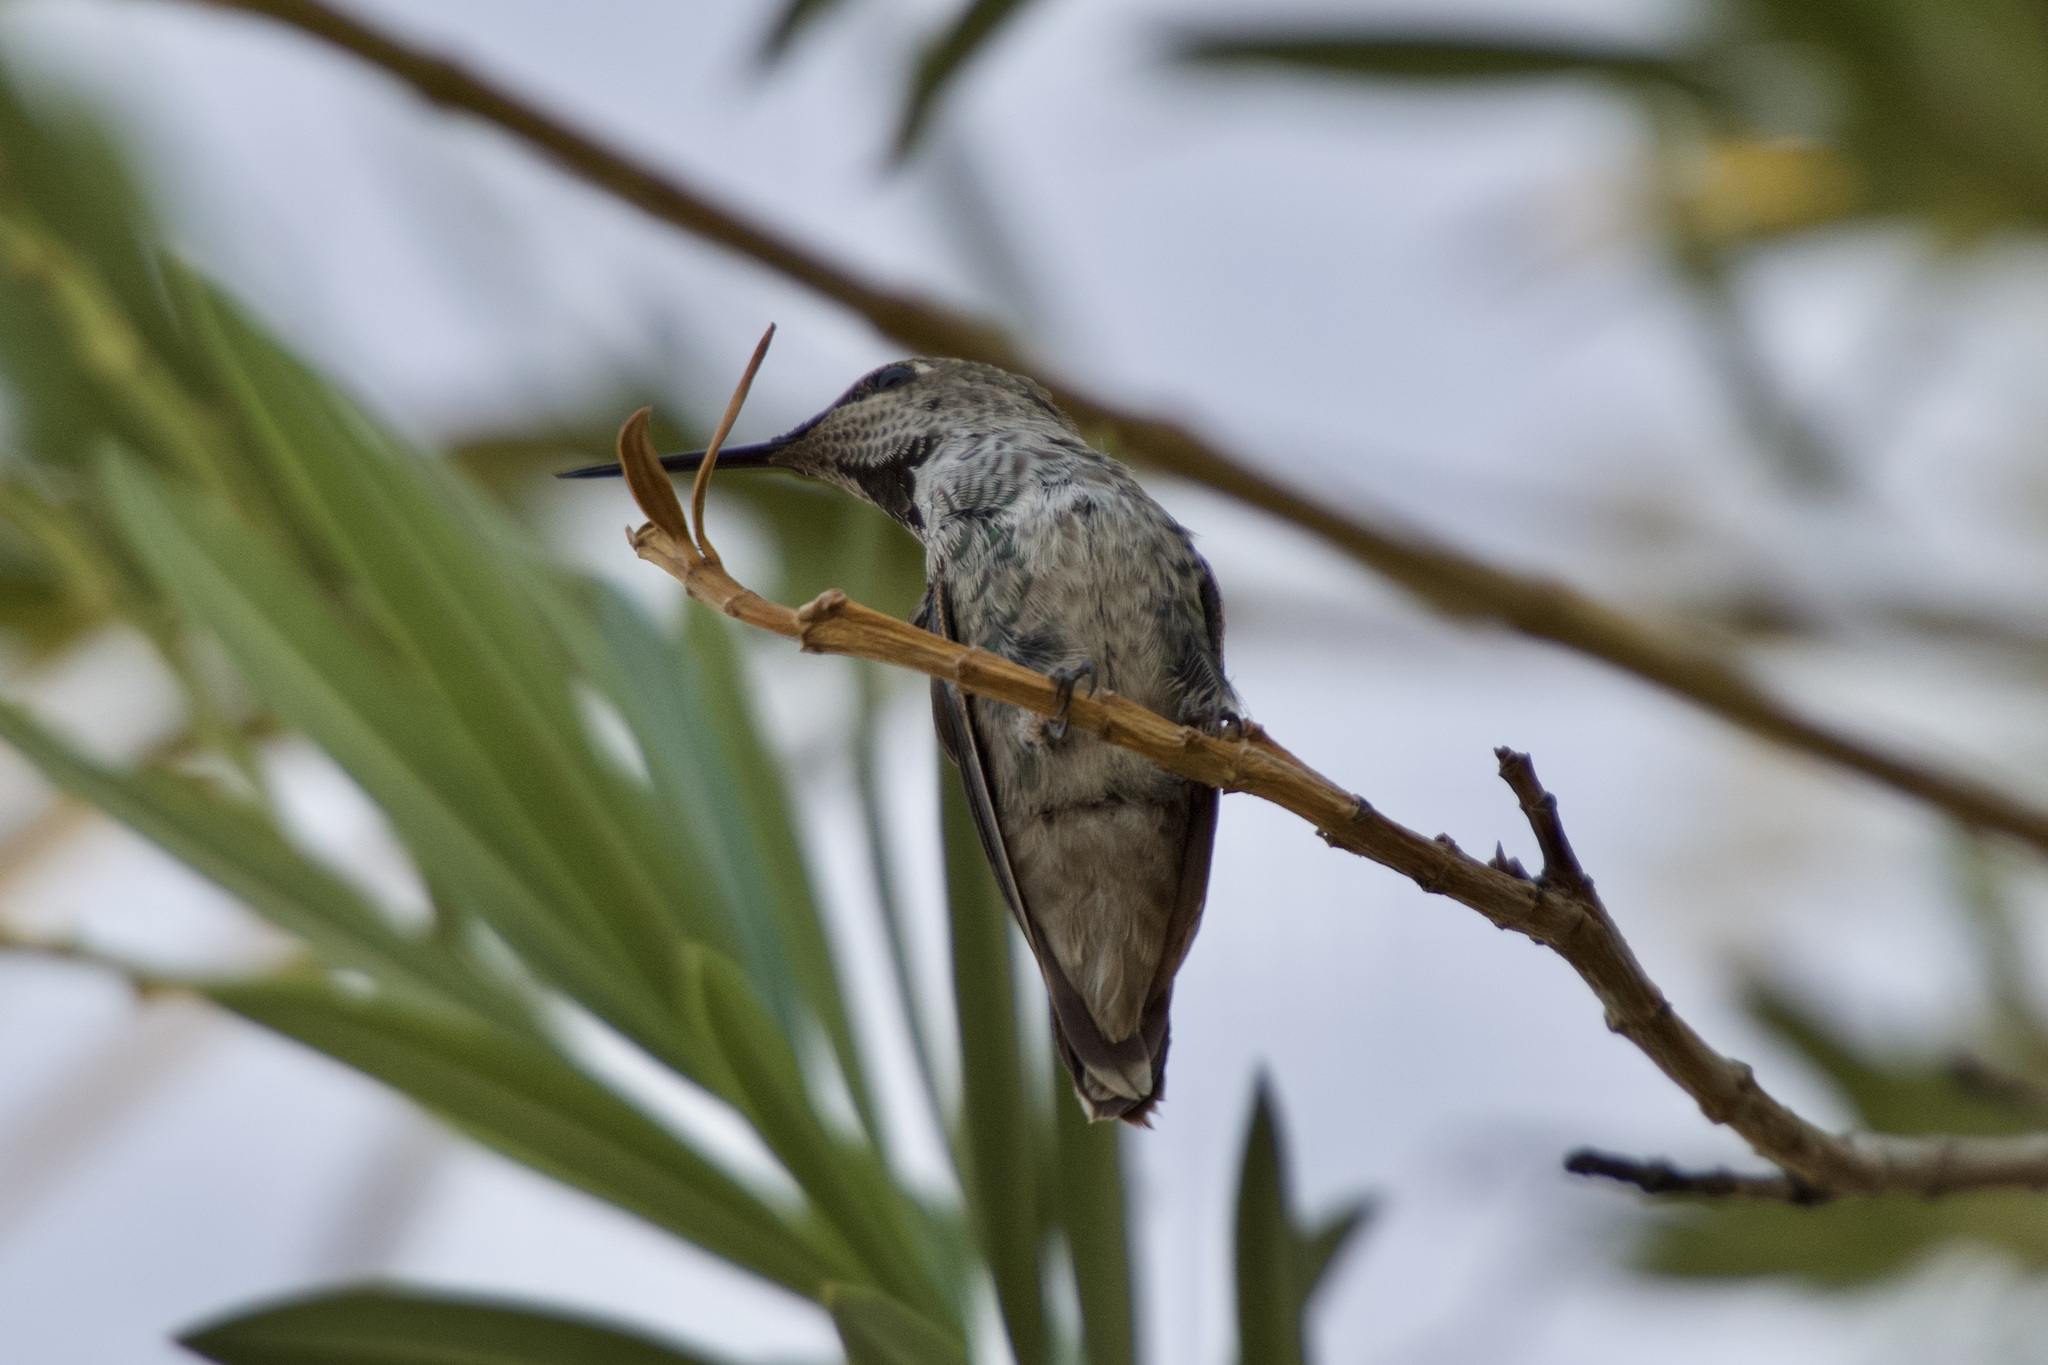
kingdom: Animalia
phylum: Chordata
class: Aves
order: Apodiformes
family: Trochilidae
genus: Calypte
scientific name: Calypte anna
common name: Anna's hummingbird
